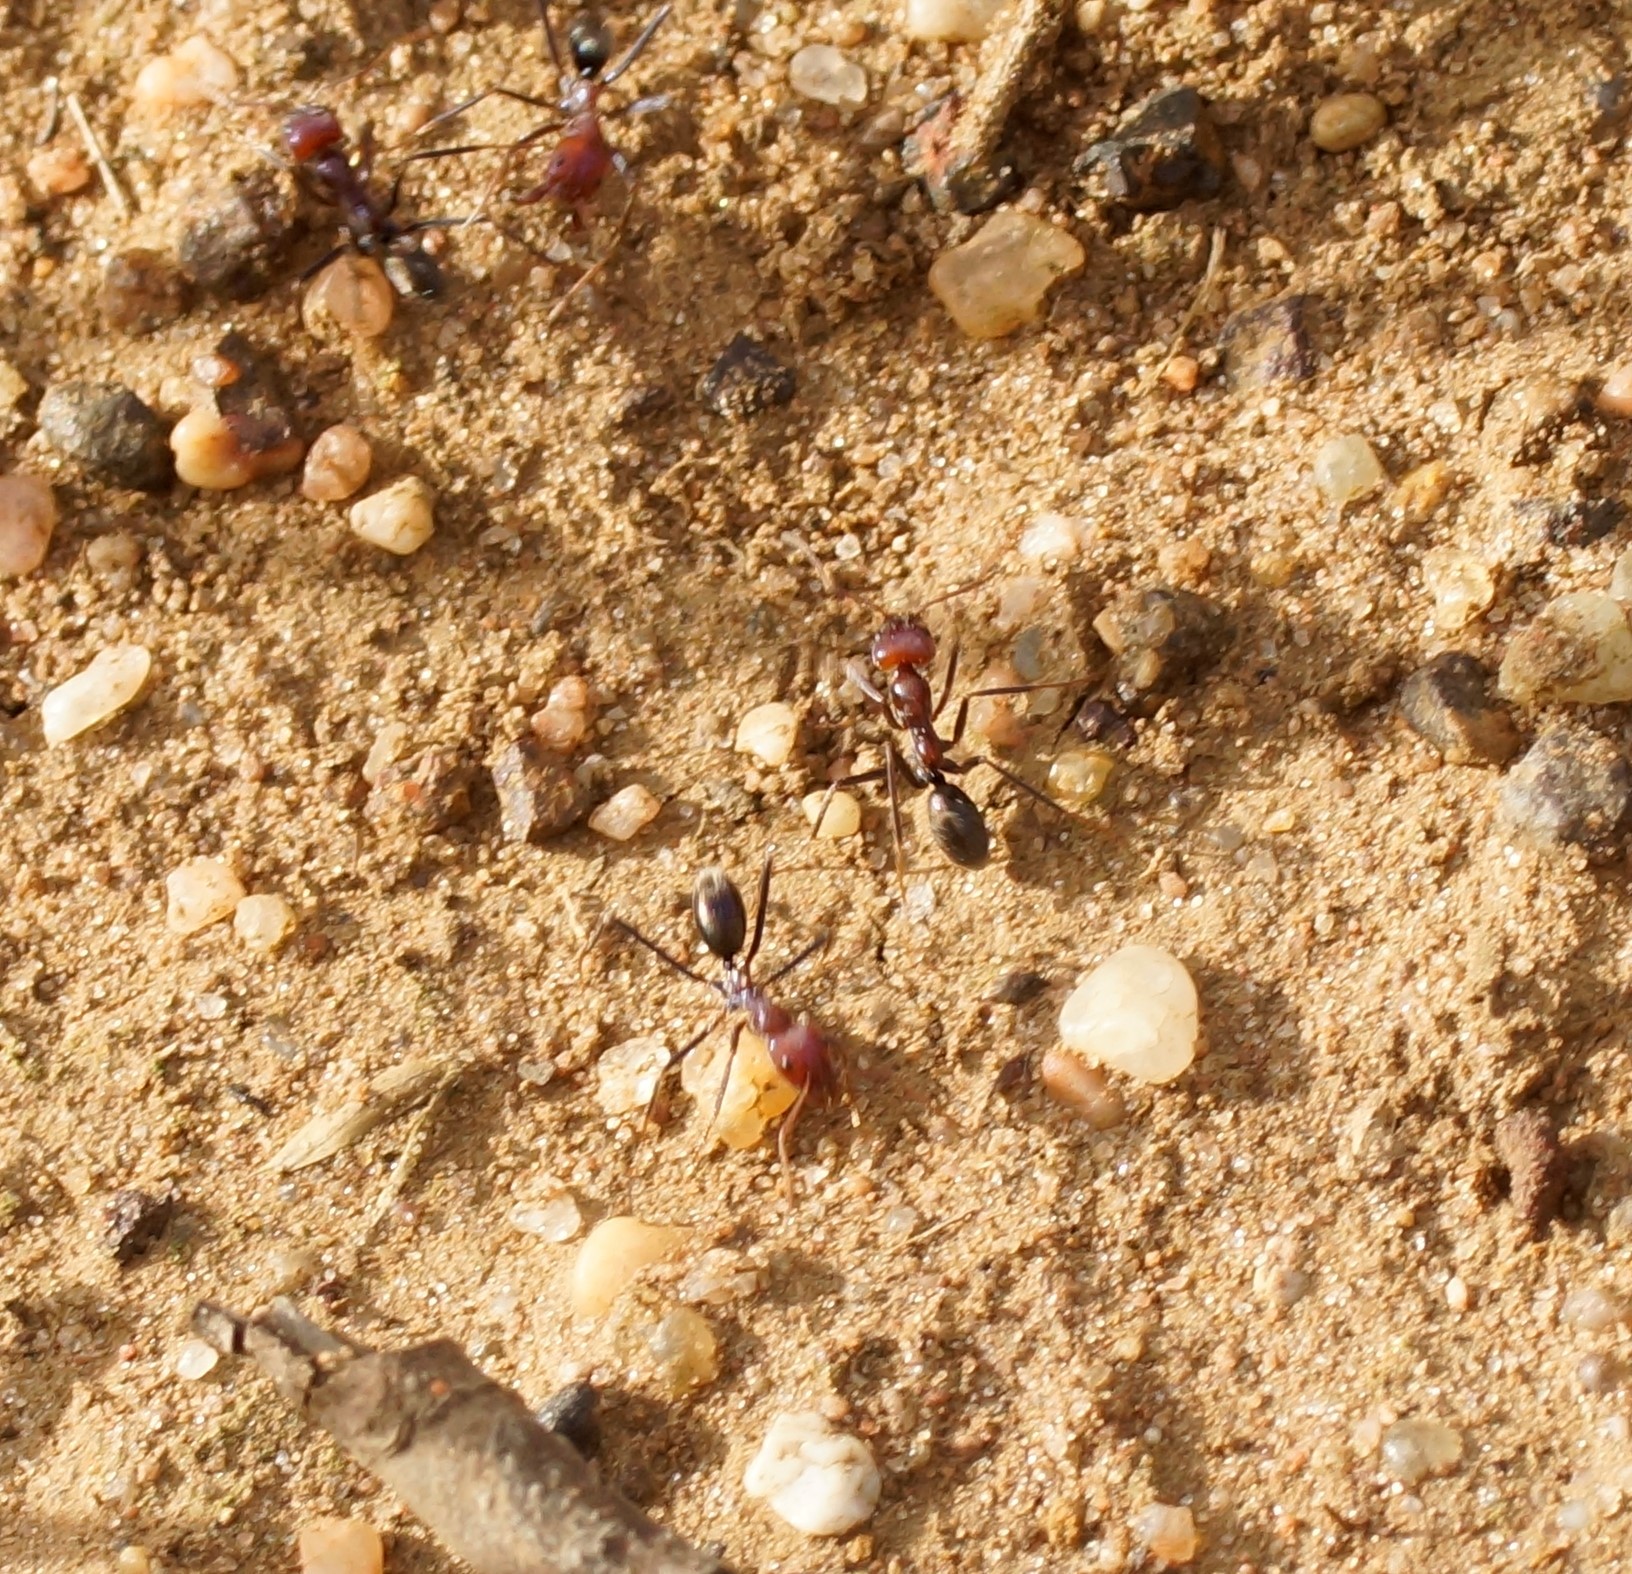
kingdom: Animalia
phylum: Arthropoda
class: Insecta
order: Hymenoptera
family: Formicidae
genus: Iridomyrmex
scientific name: Iridomyrmex purpureus
